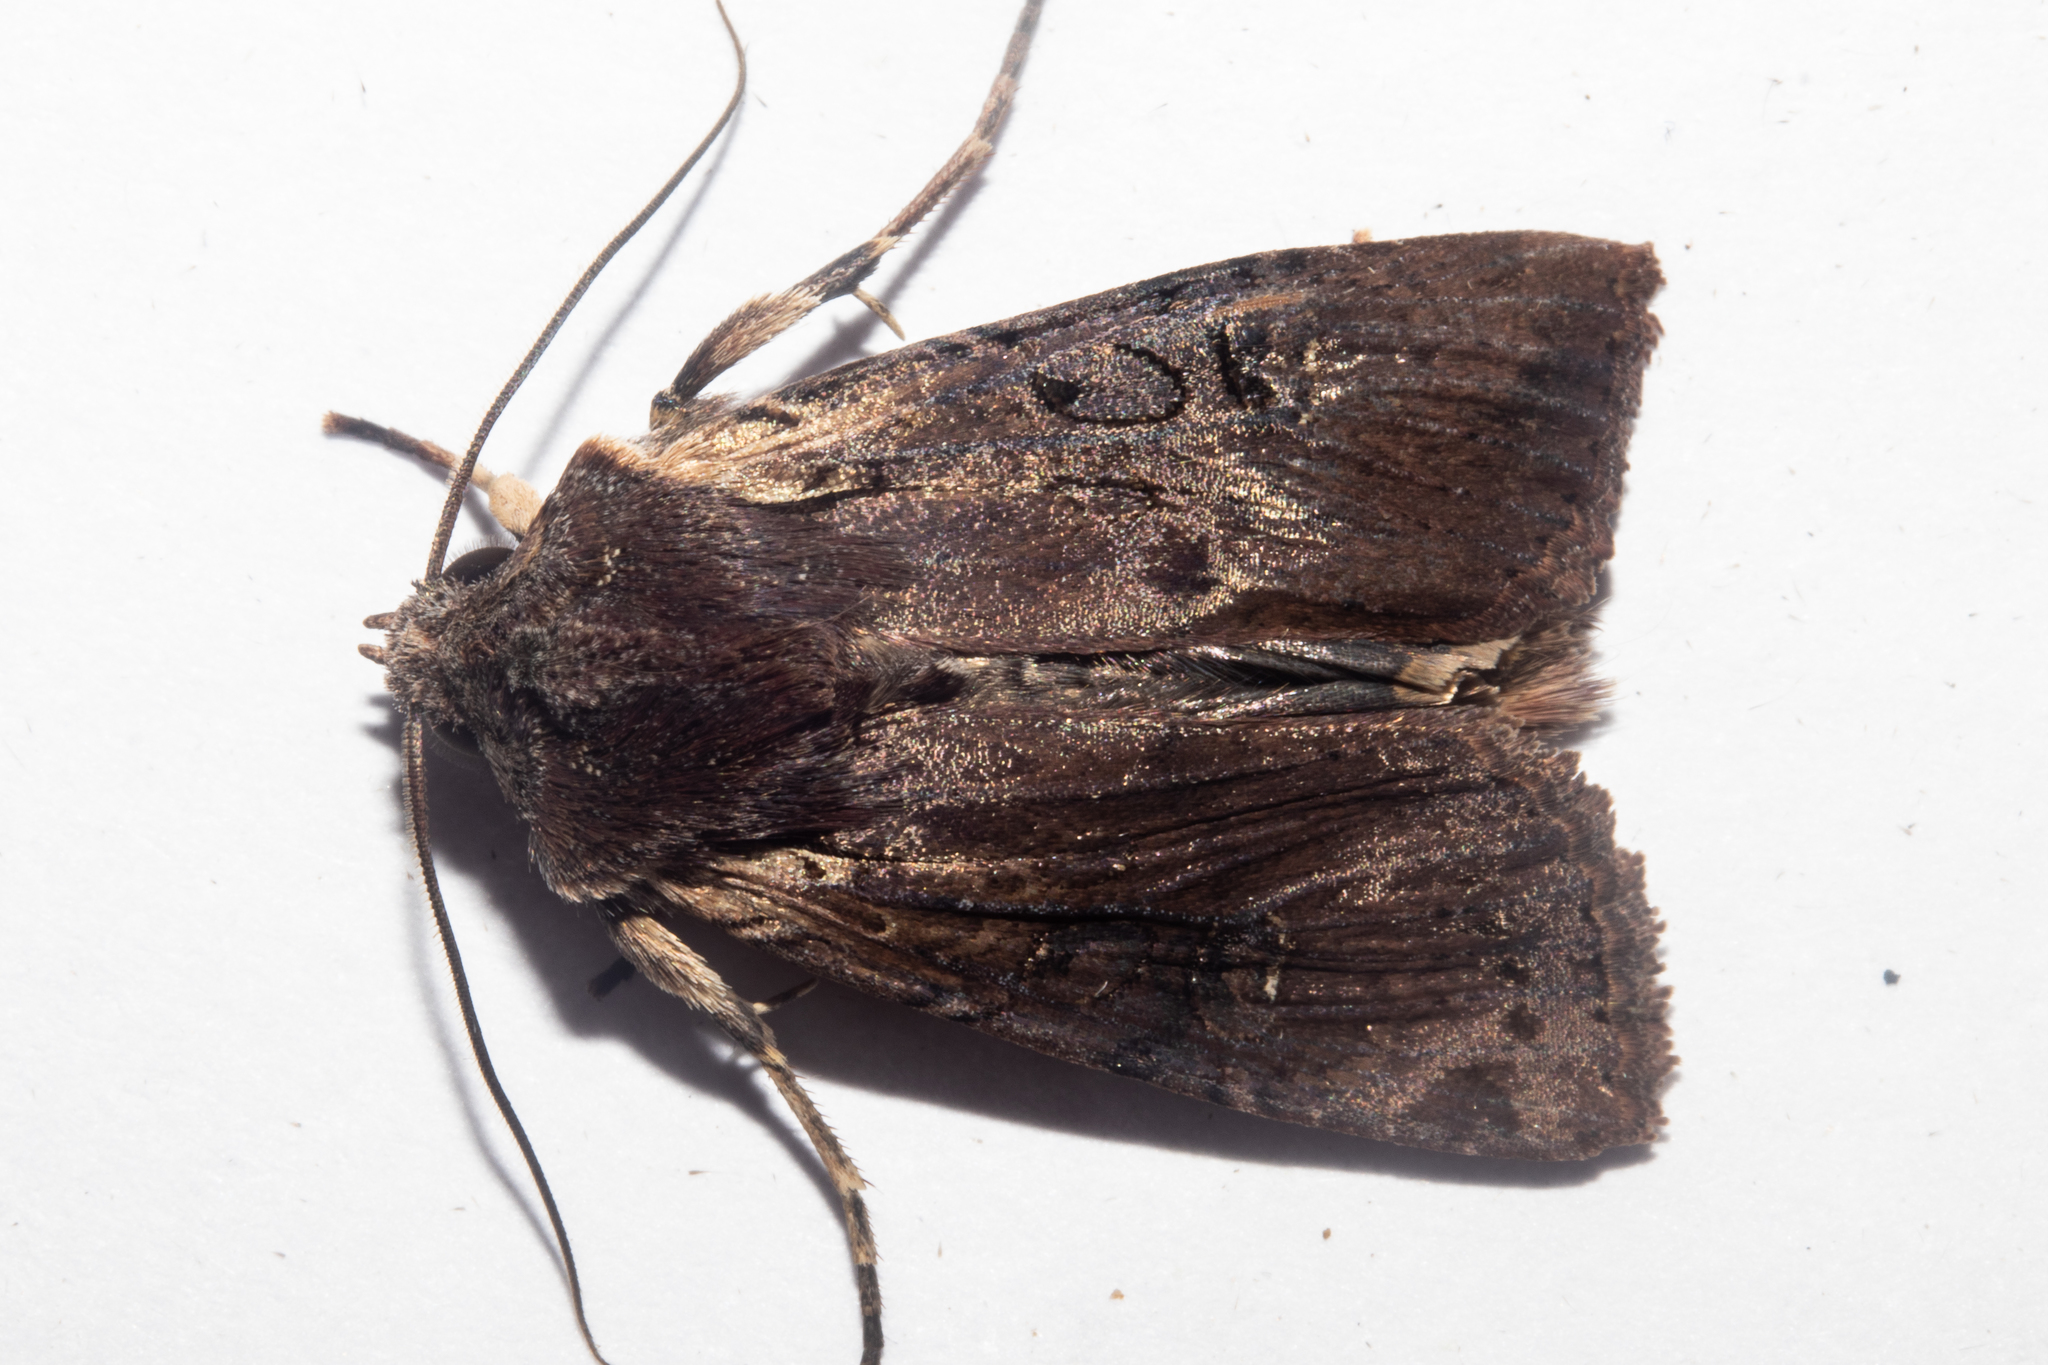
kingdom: Animalia
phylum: Arthropoda
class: Insecta
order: Lepidoptera
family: Noctuidae
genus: Ichneutica
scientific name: Ichneutica omoplaca
